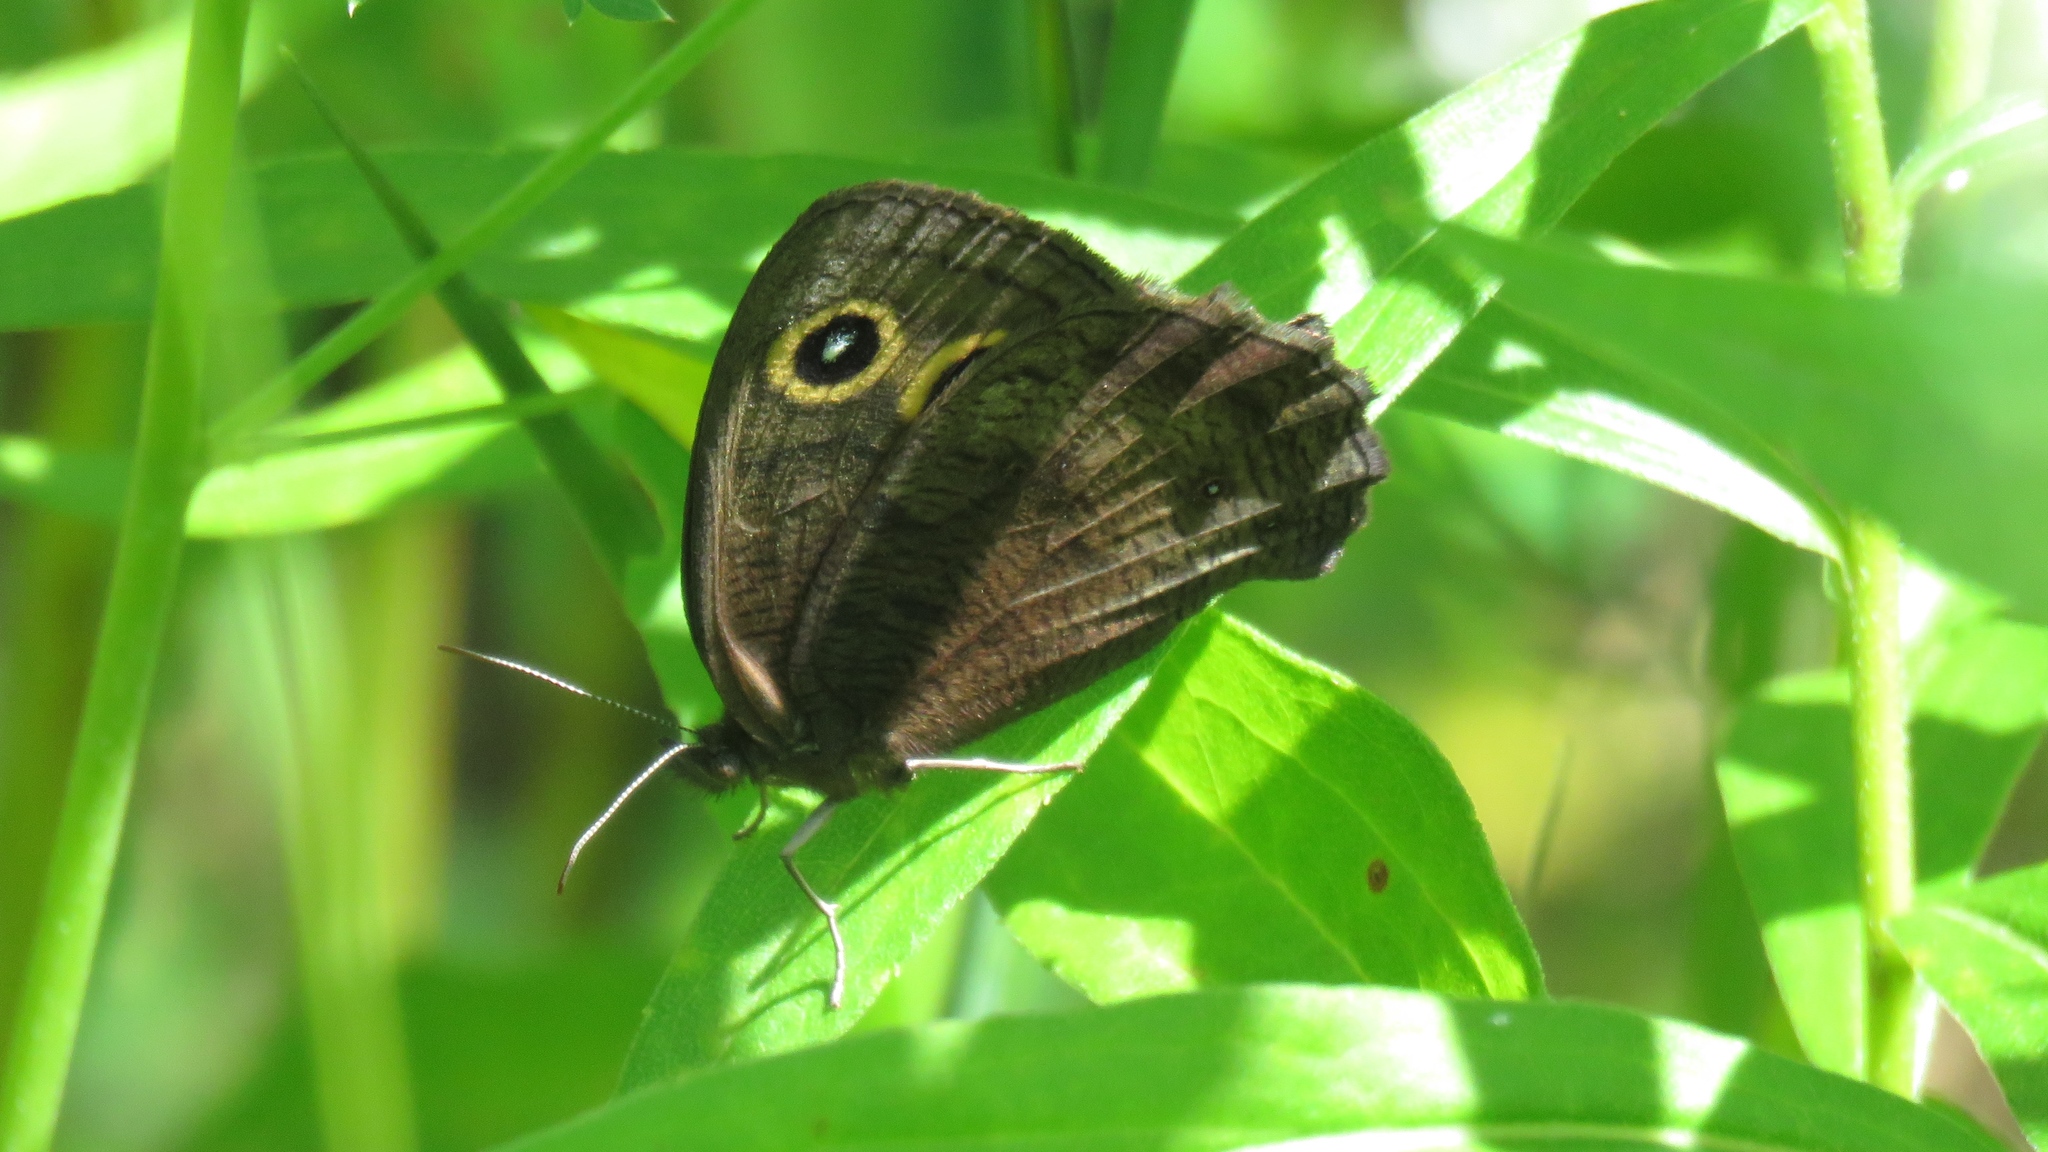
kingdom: Animalia
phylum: Arthropoda
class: Insecta
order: Lepidoptera
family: Nymphalidae
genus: Cercyonis
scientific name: Cercyonis pegala
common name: Common wood-nymph
